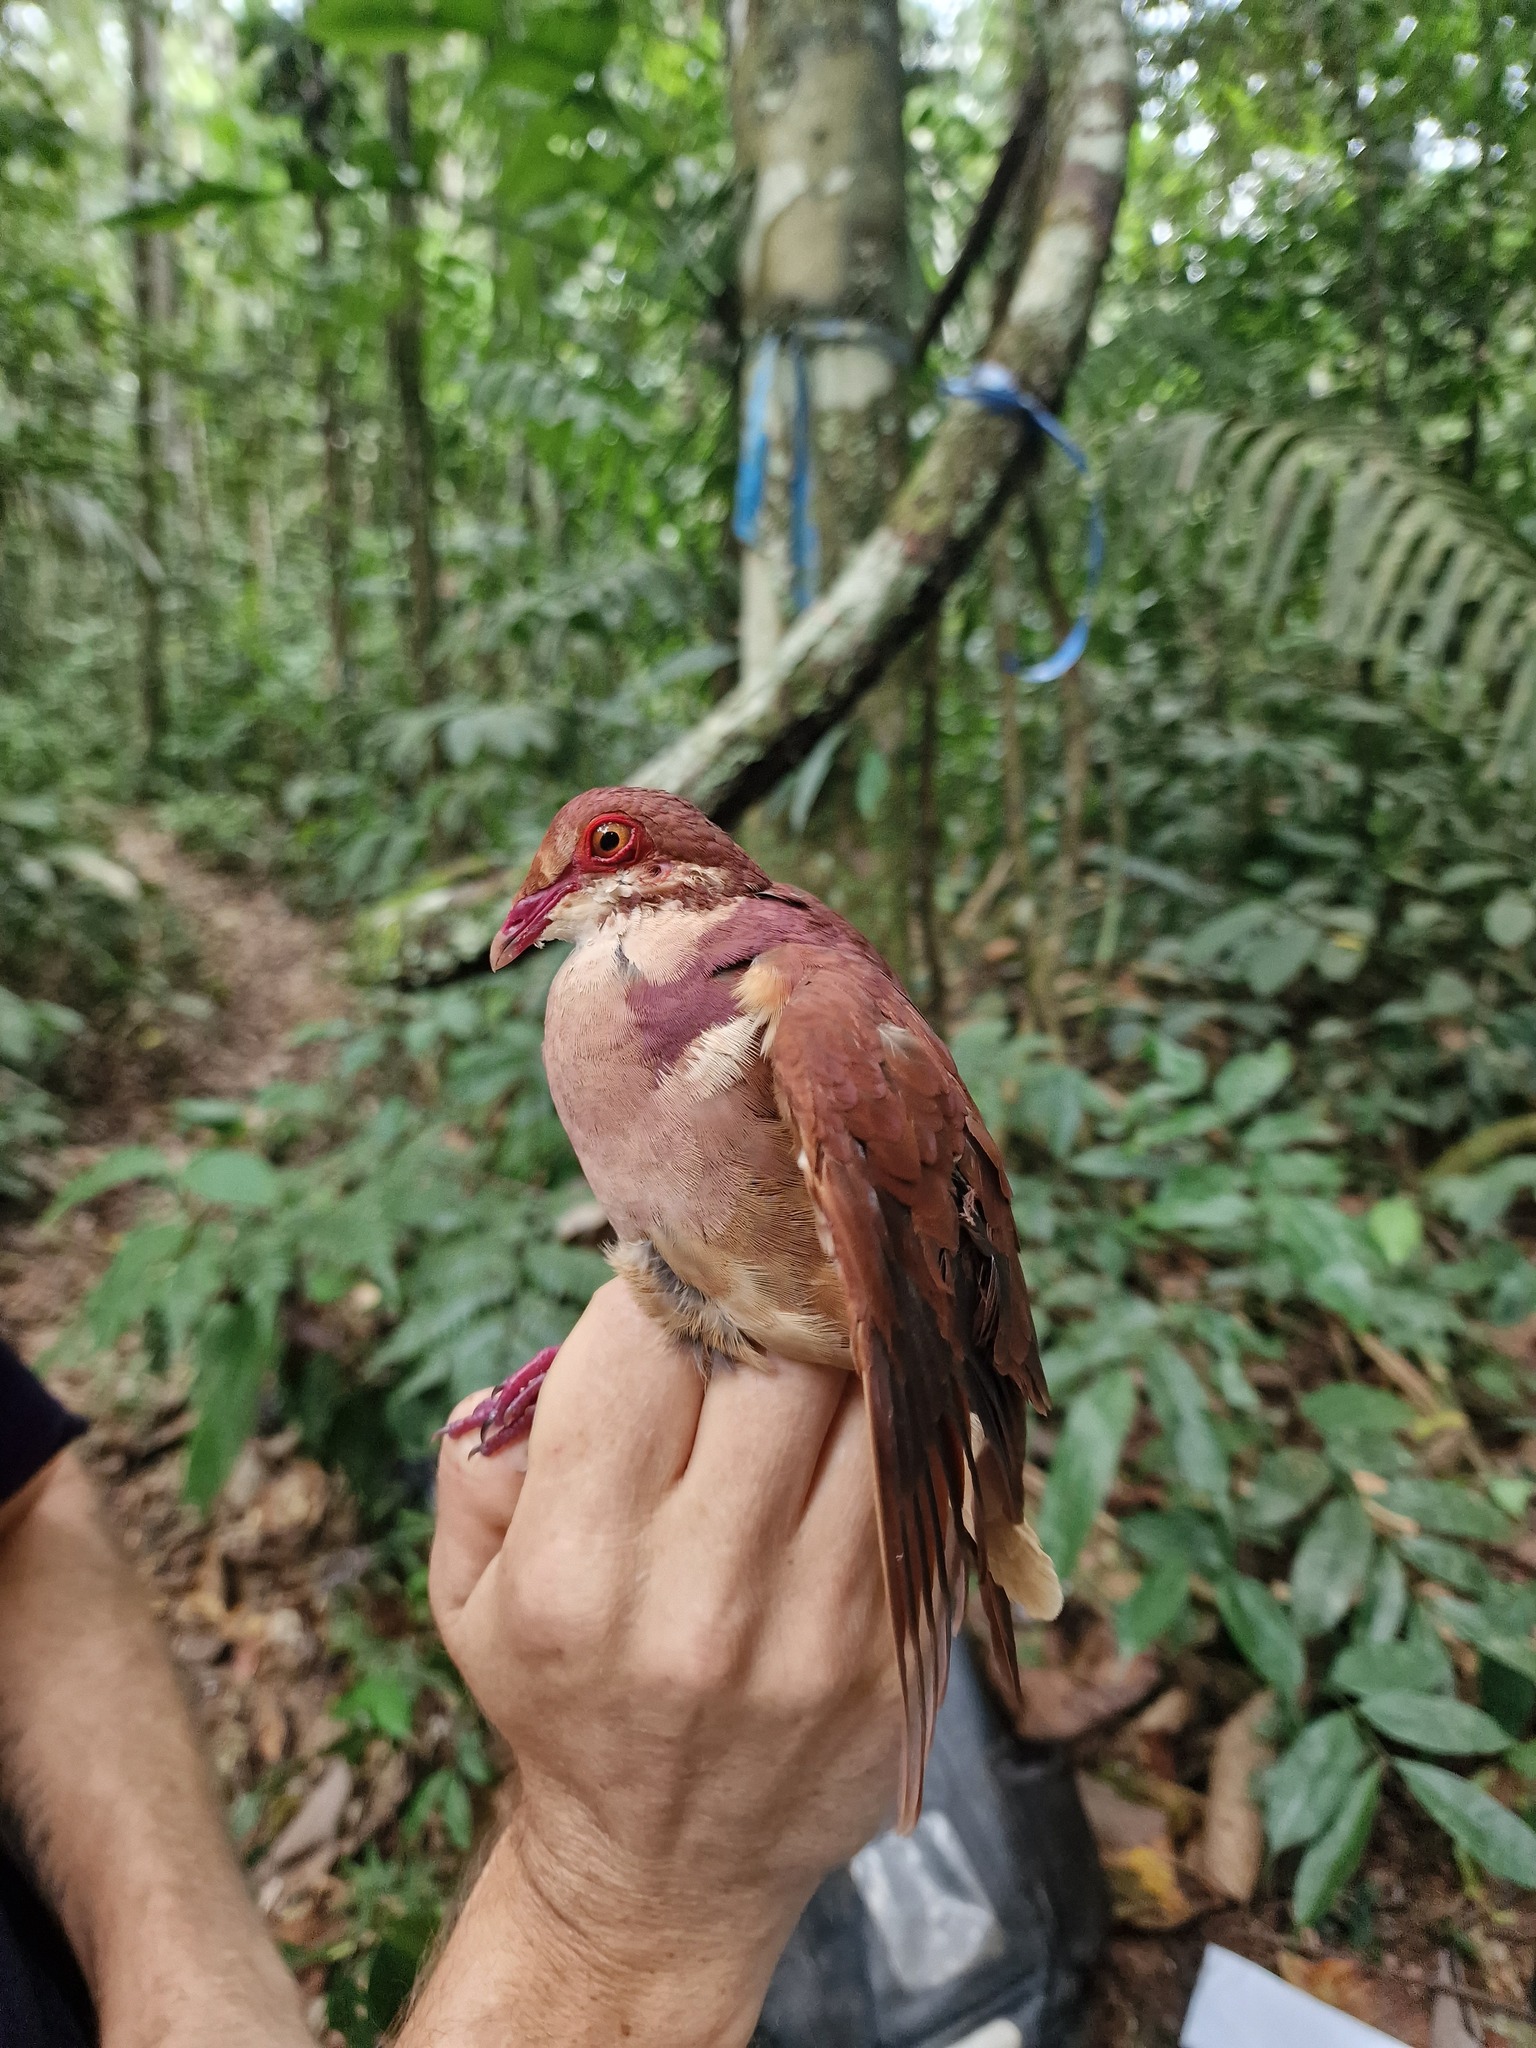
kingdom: Animalia
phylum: Chordata
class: Aves
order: Columbiformes
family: Columbidae
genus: Geotrygon
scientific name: Geotrygon montana
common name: Ruddy quail-dove
